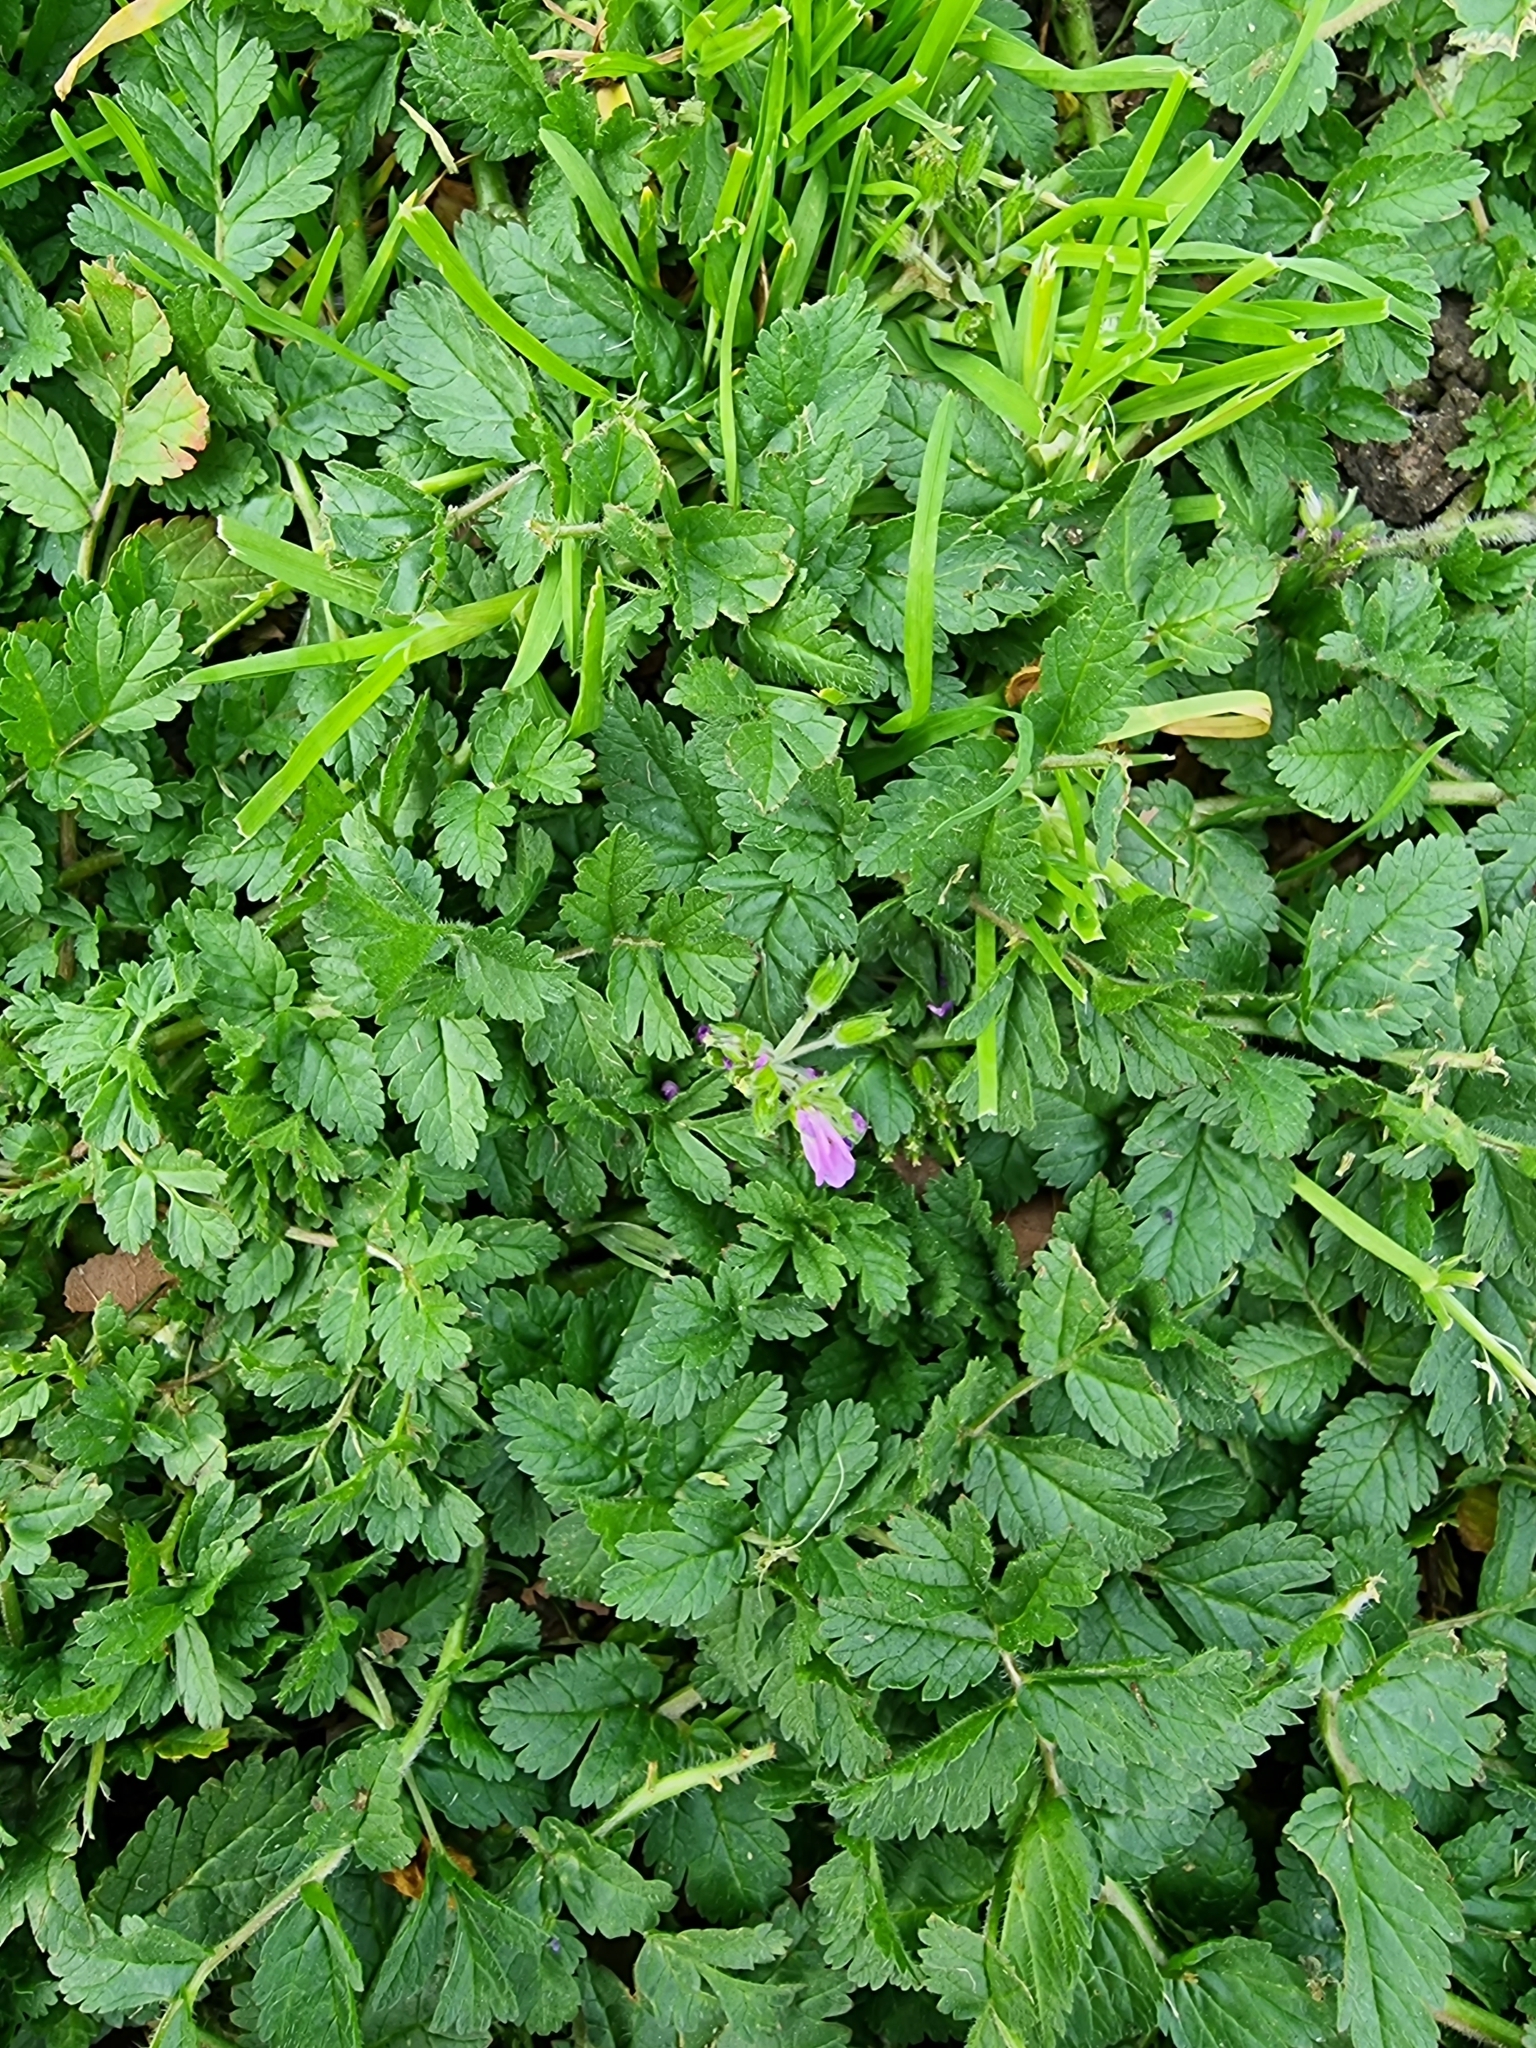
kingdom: Plantae
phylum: Tracheophyta
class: Magnoliopsida
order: Geraniales
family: Geraniaceae
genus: Erodium
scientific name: Erodium moschatum
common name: Musk stork's-bill
